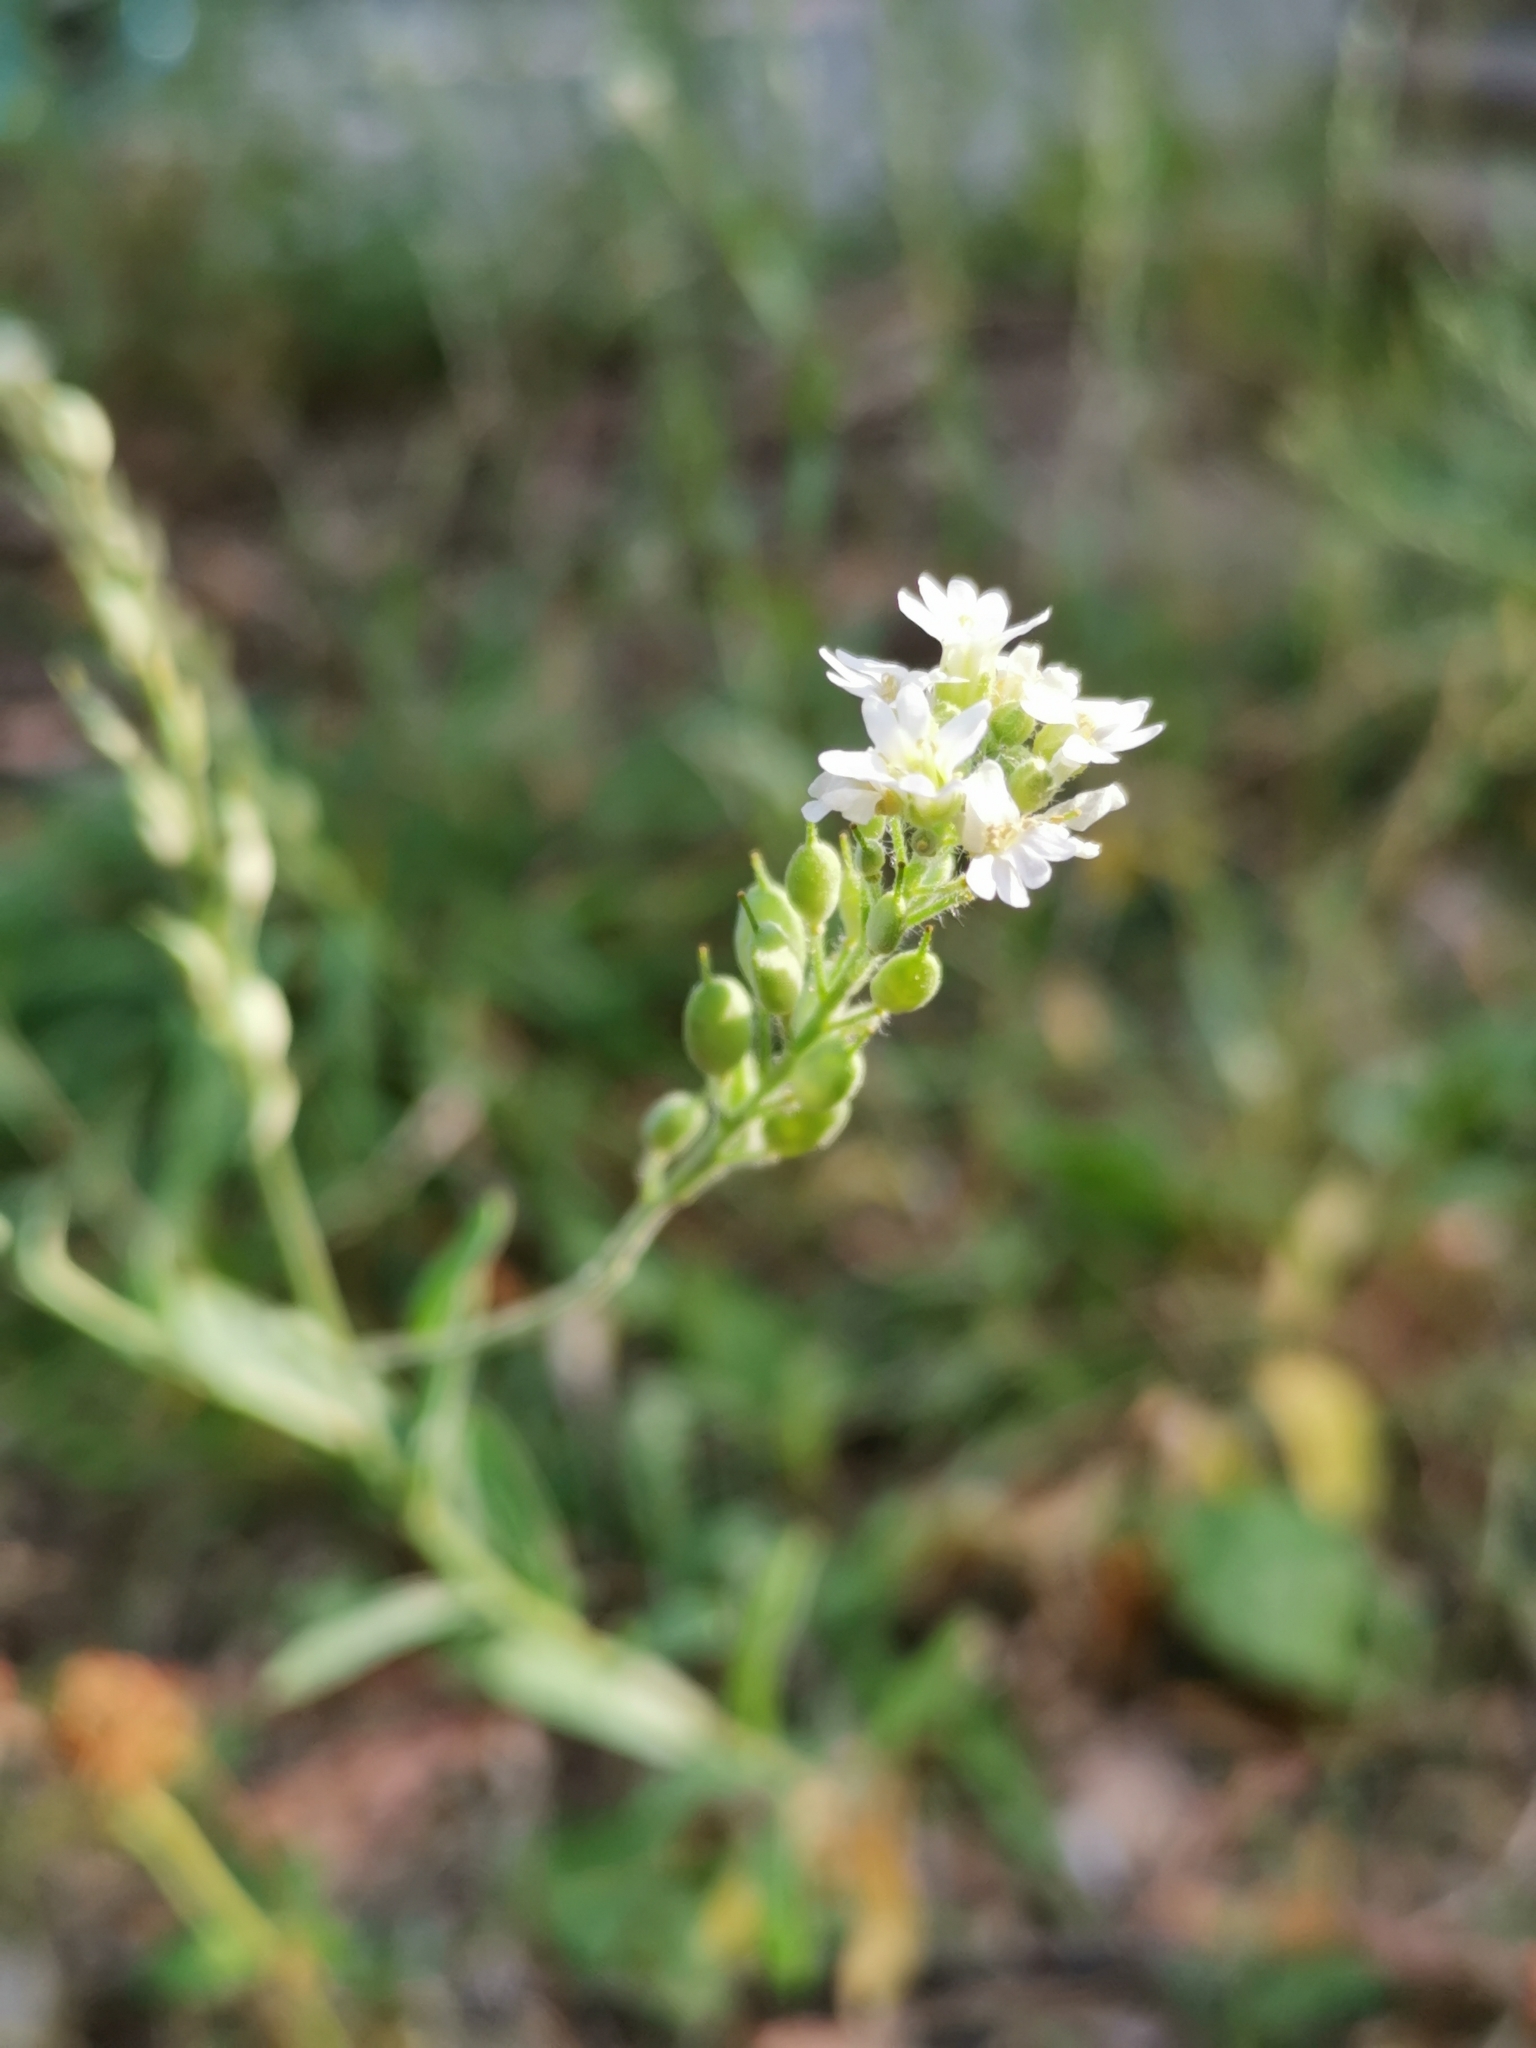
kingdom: Plantae
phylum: Tracheophyta
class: Magnoliopsida
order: Brassicales
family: Brassicaceae
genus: Berteroa
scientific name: Berteroa incana
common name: Hoary alison
